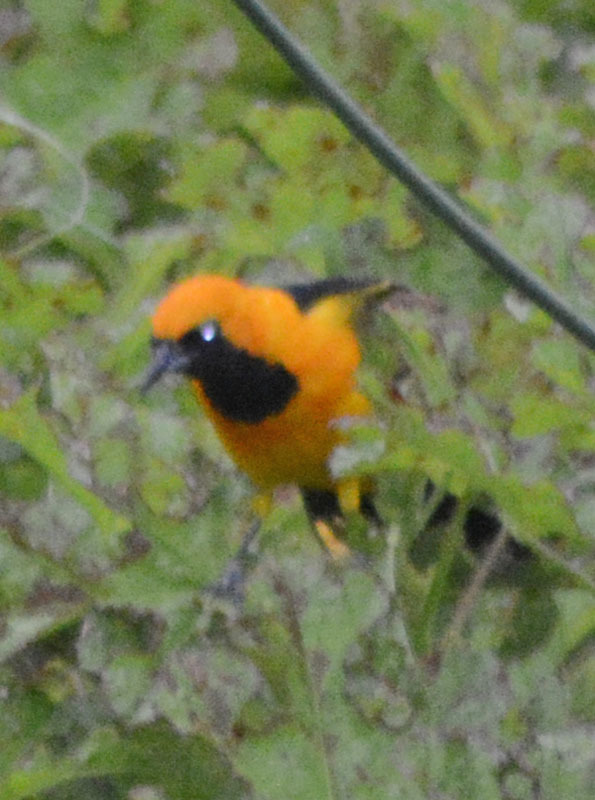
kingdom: Animalia
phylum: Chordata
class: Aves
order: Passeriformes
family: Icteridae
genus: Icterus
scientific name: Icterus cucullatus
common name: Hooded oriole
